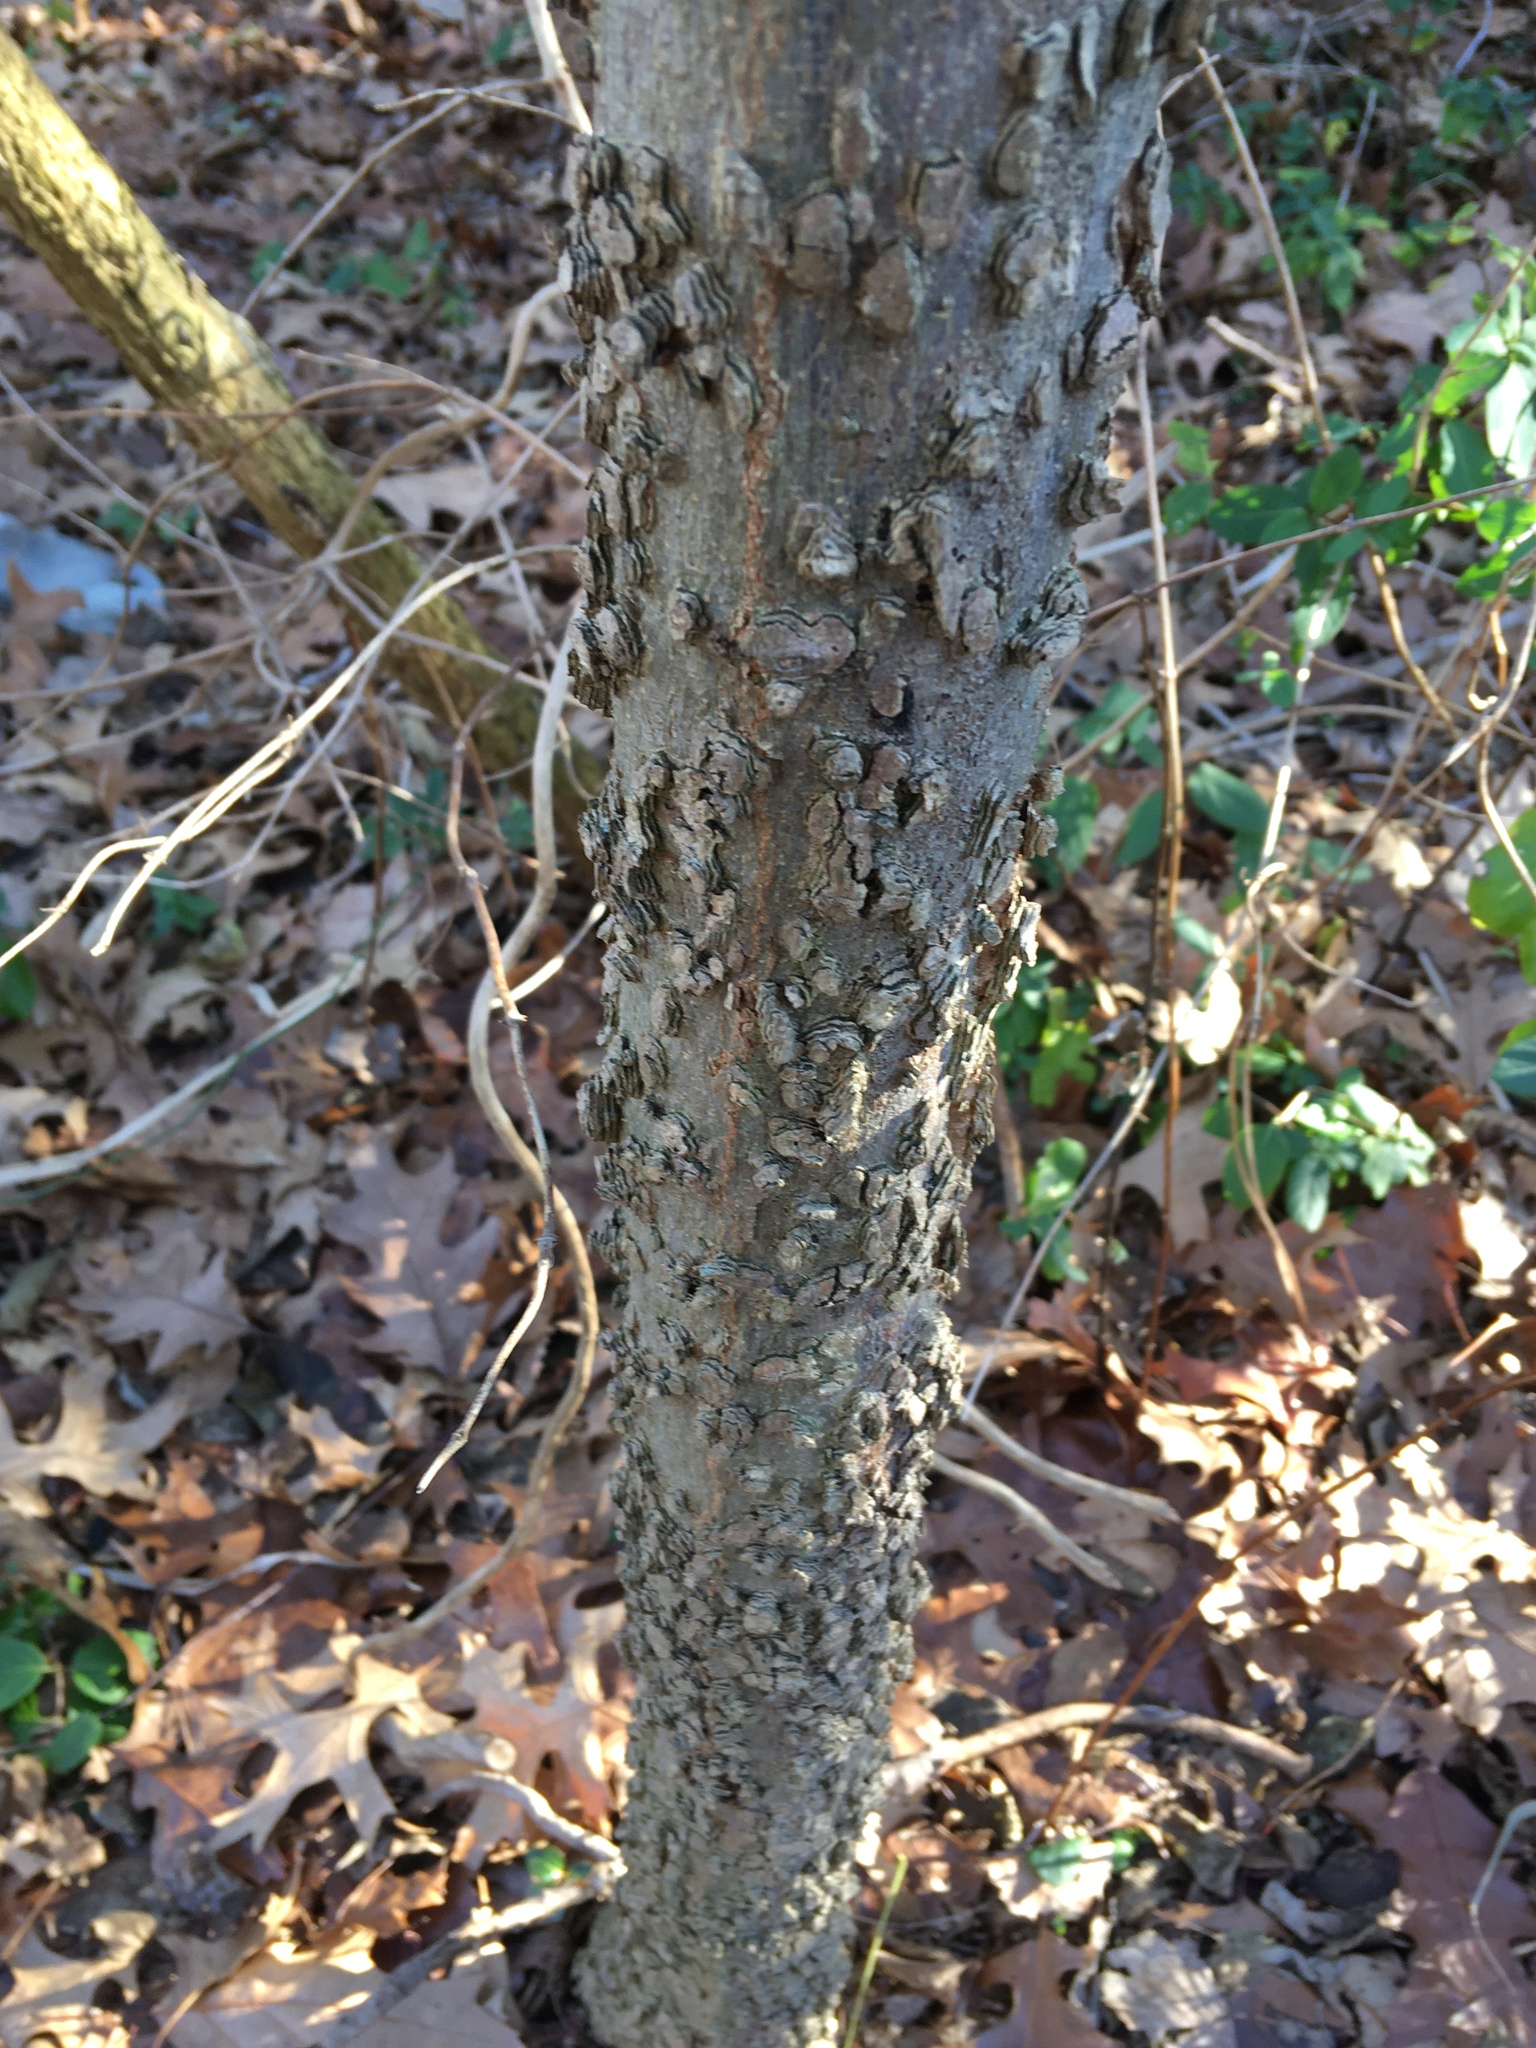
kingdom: Plantae
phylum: Tracheophyta
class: Magnoliopsida
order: Rosales
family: Cannabaceae
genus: Celtis
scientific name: Celtis occidentalis
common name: Common hackberry
